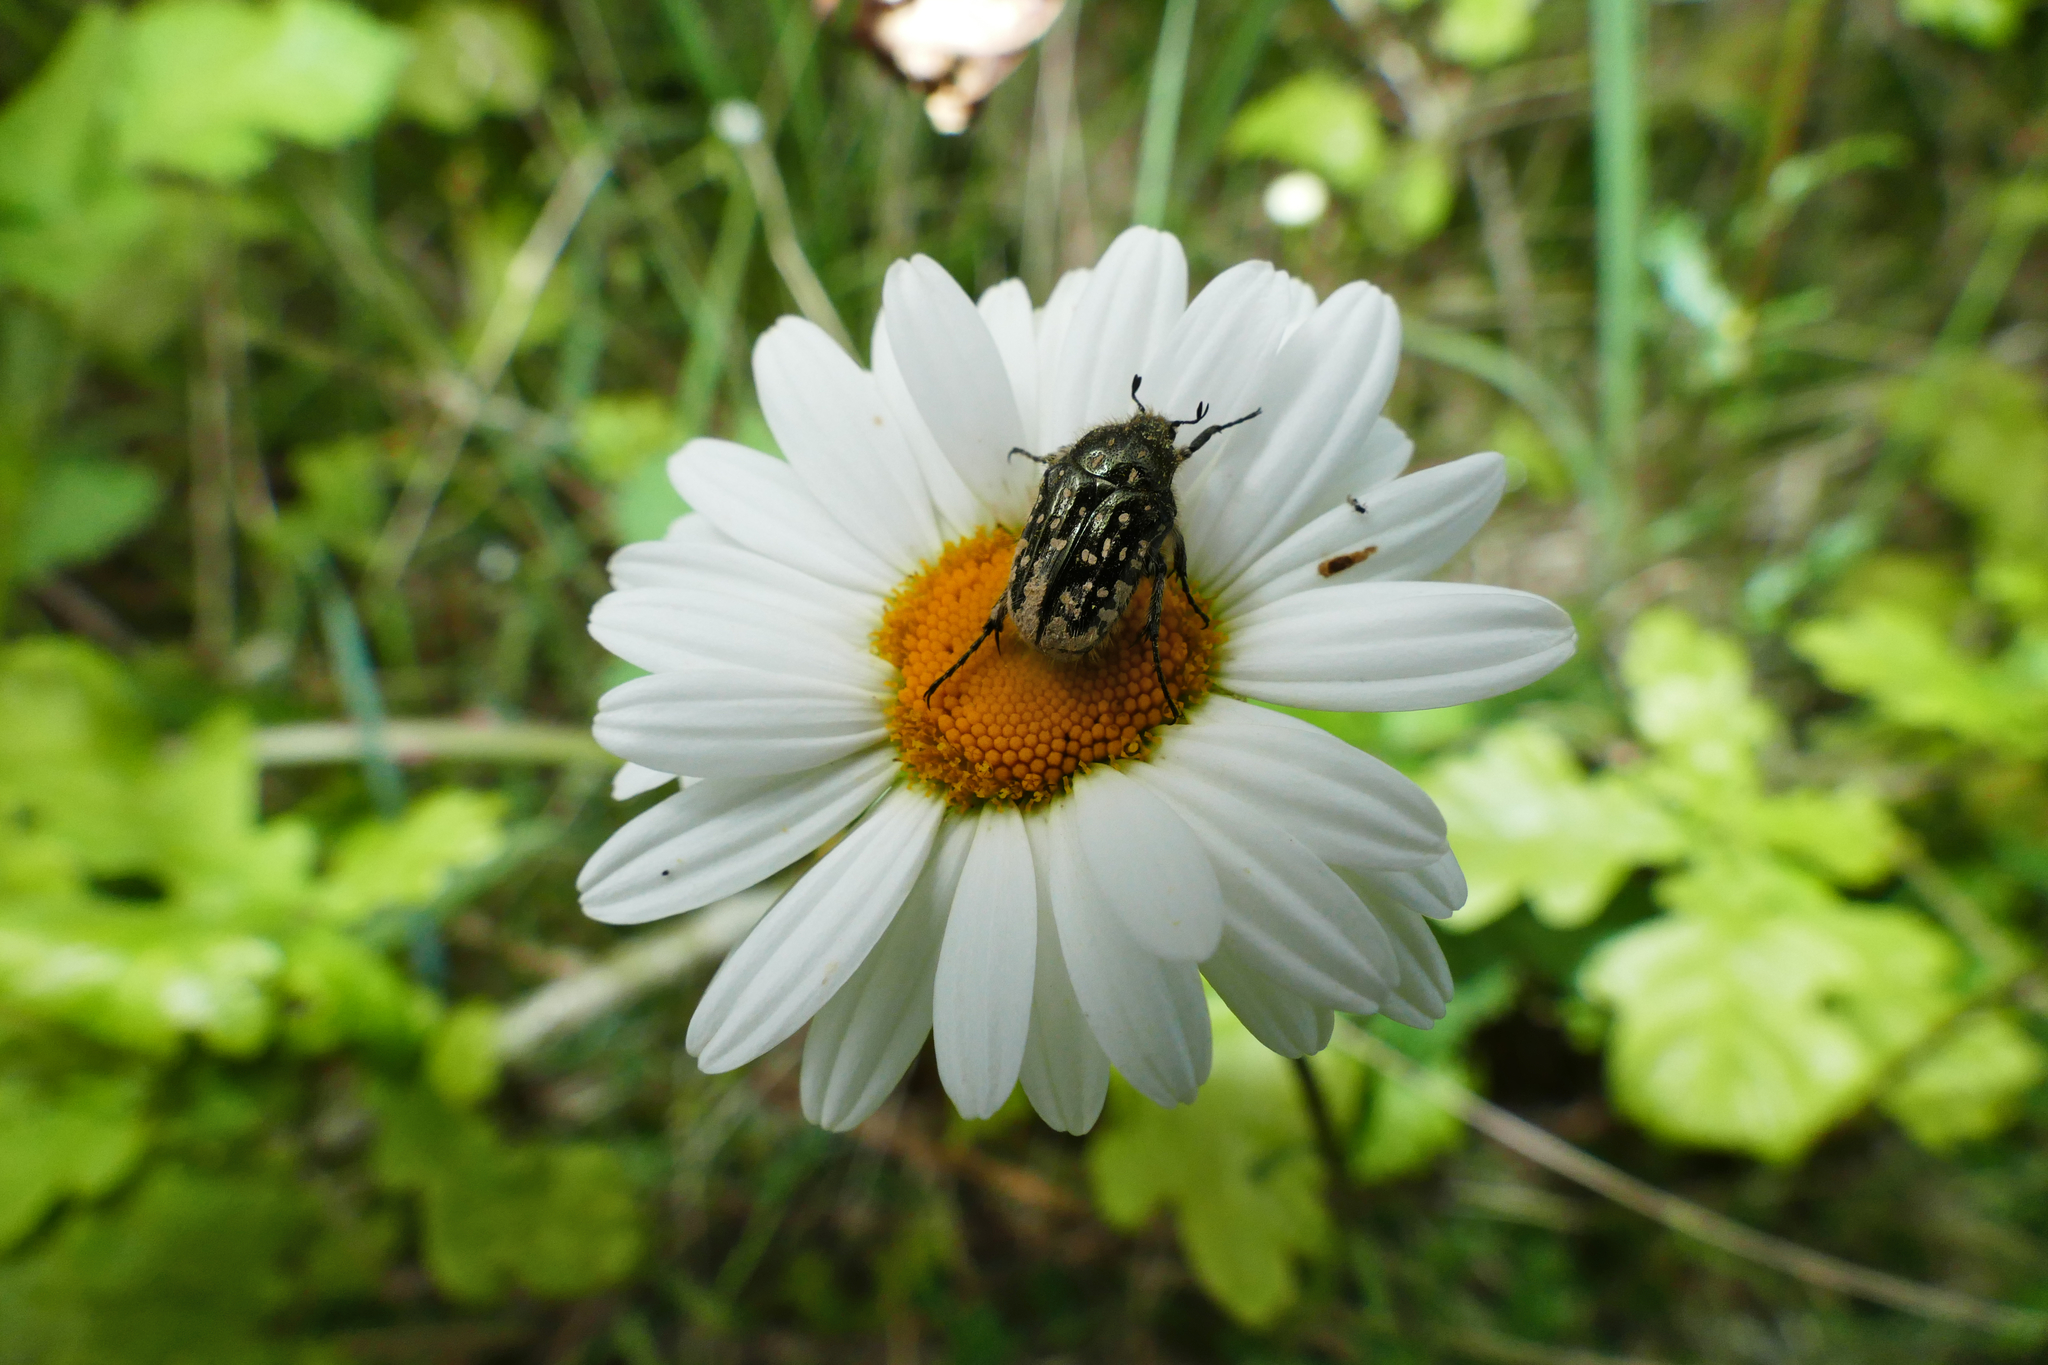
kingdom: Animalia
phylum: Arthropoda
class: Insecta
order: Coleoptera
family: Scarabaeidae
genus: Oxythyrea
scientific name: Oxythyrea funesta
